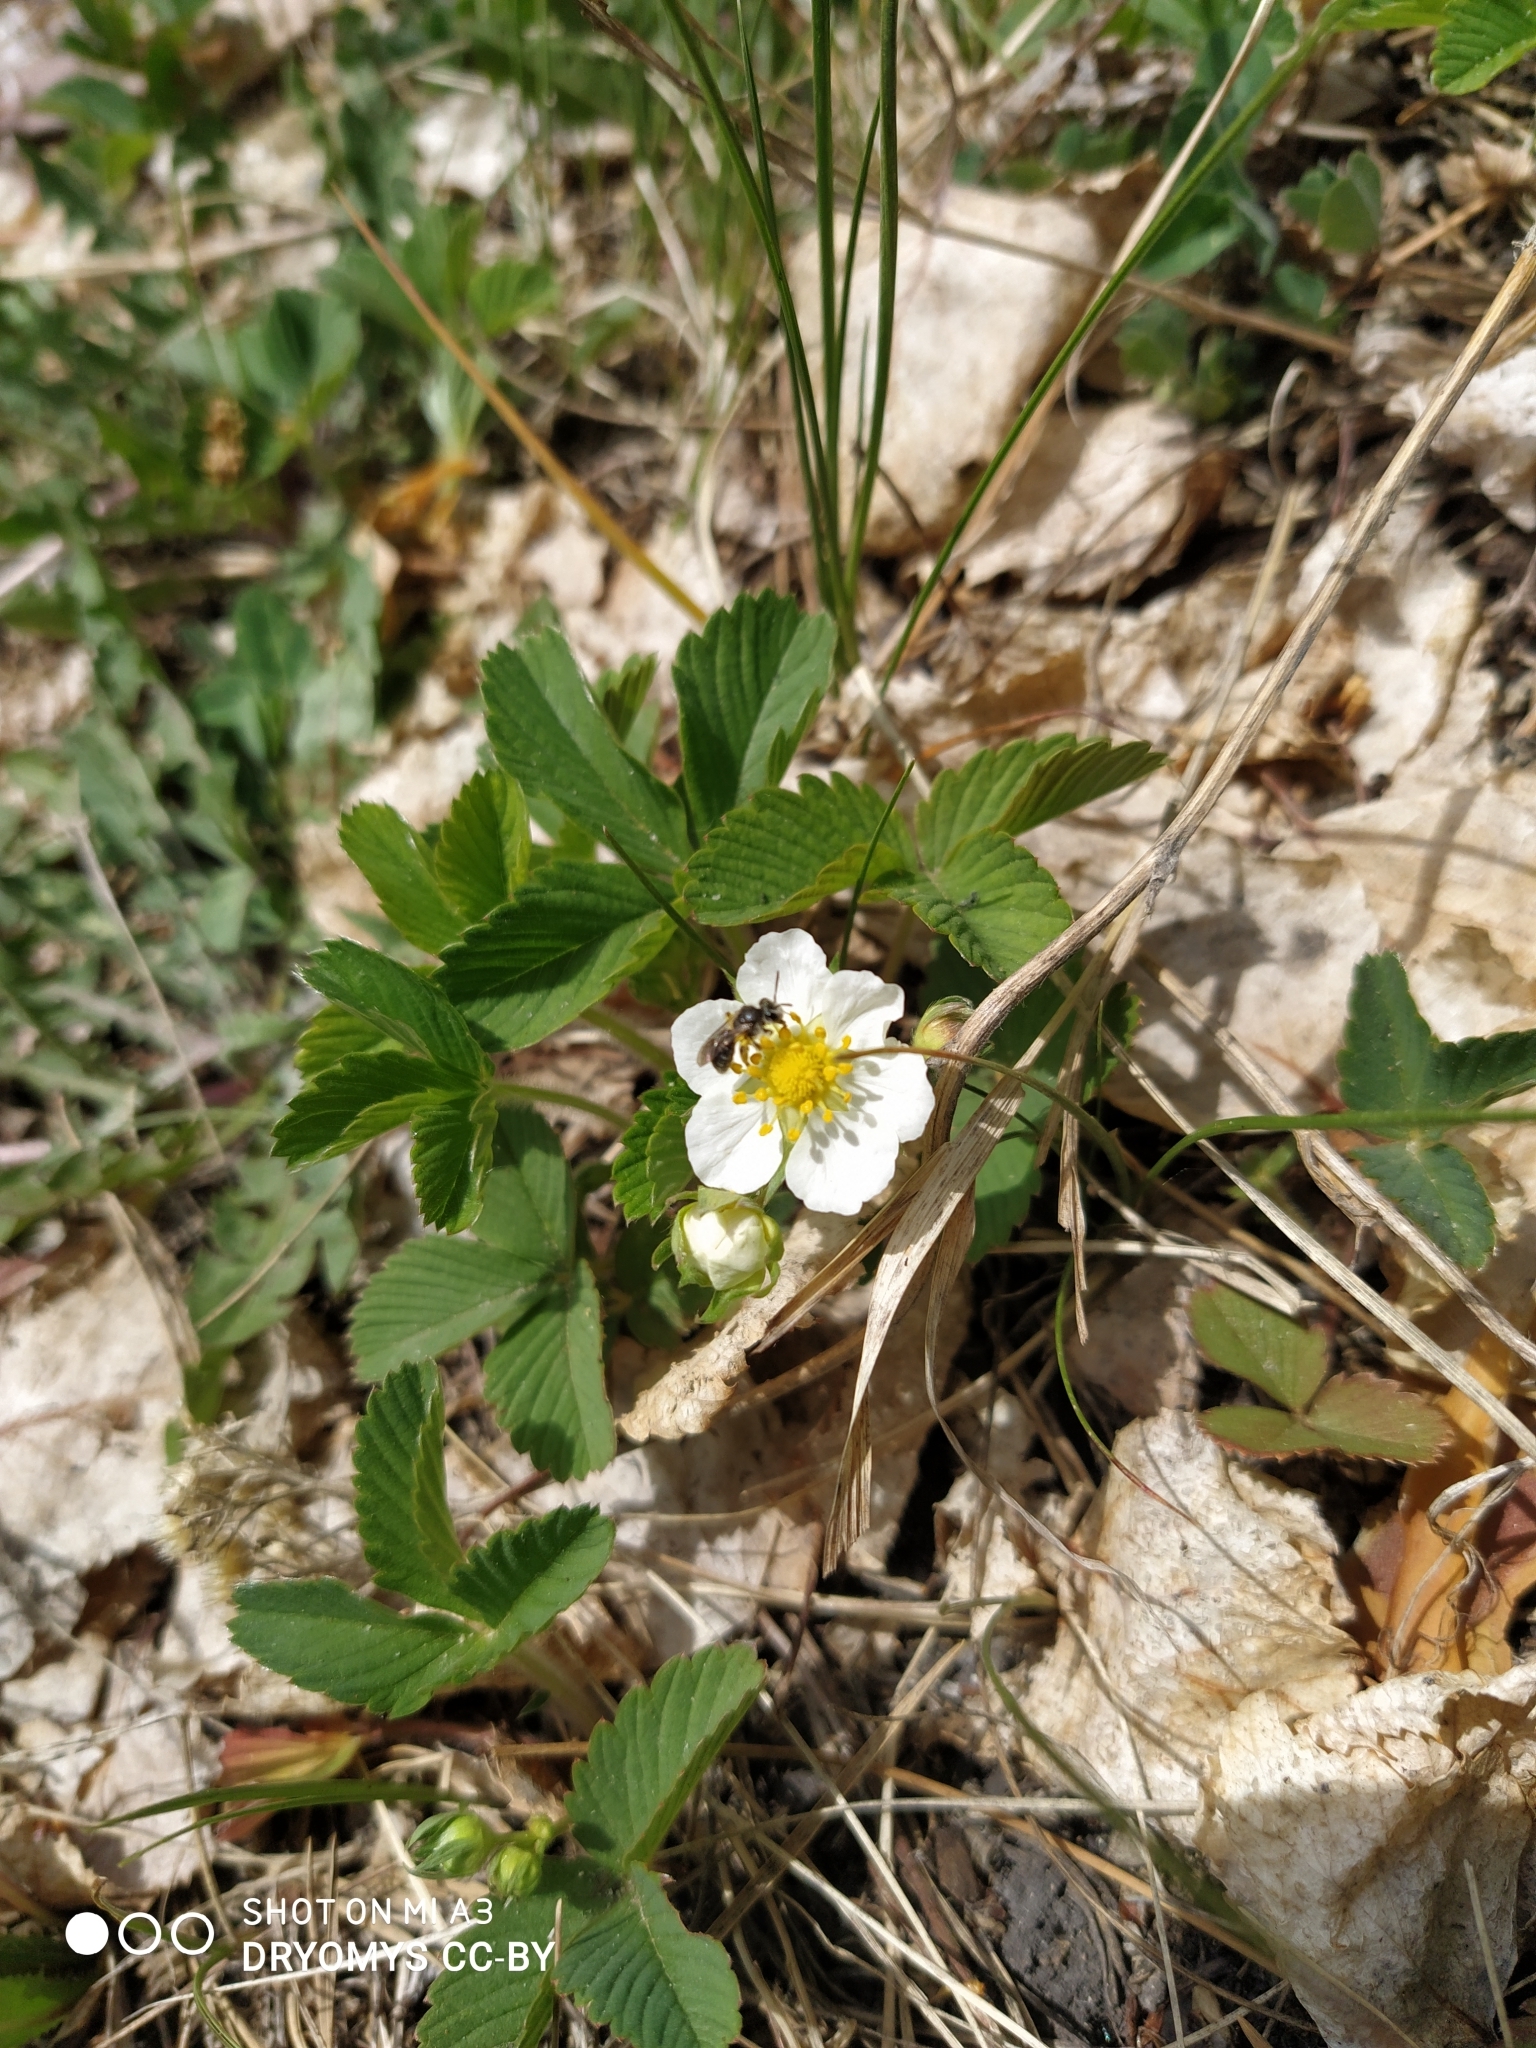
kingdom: Plantae
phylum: Tracheophyta
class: Magnoliopsida
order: Rosales
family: Rosaceae
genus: Fragaria
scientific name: Fragaria viridis
